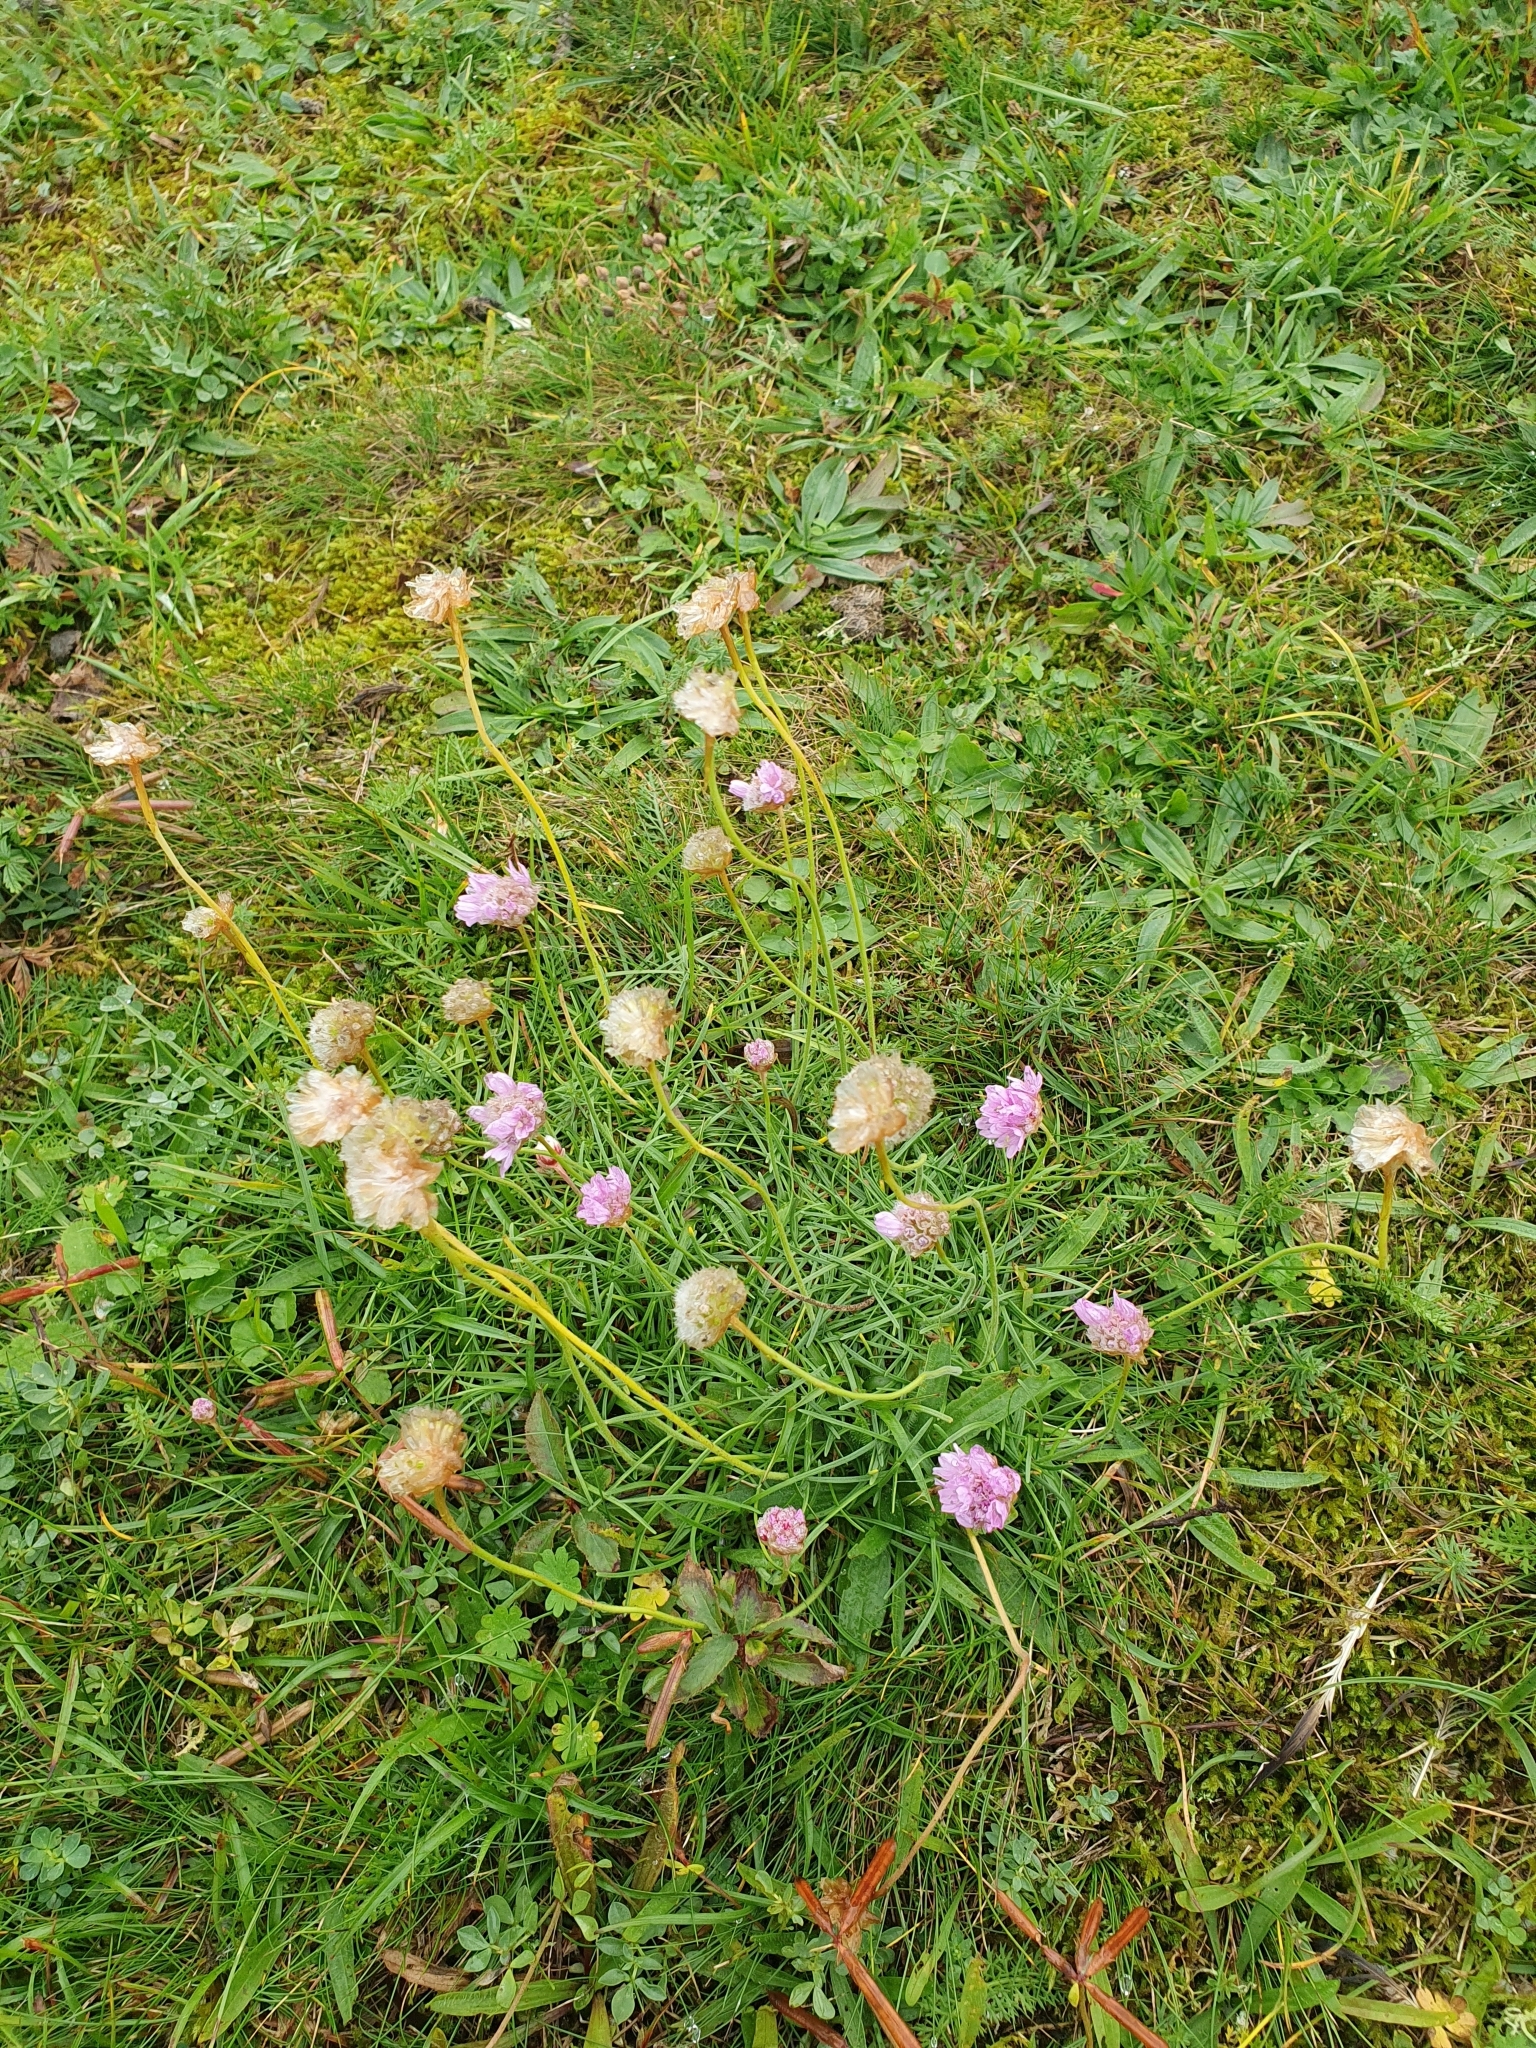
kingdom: Plantae
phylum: Tracheophyta
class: Magnoliopsida
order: Caryophyllales
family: Plumbaginaceae
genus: Armeria
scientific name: Armeria maritima
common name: Thrift
